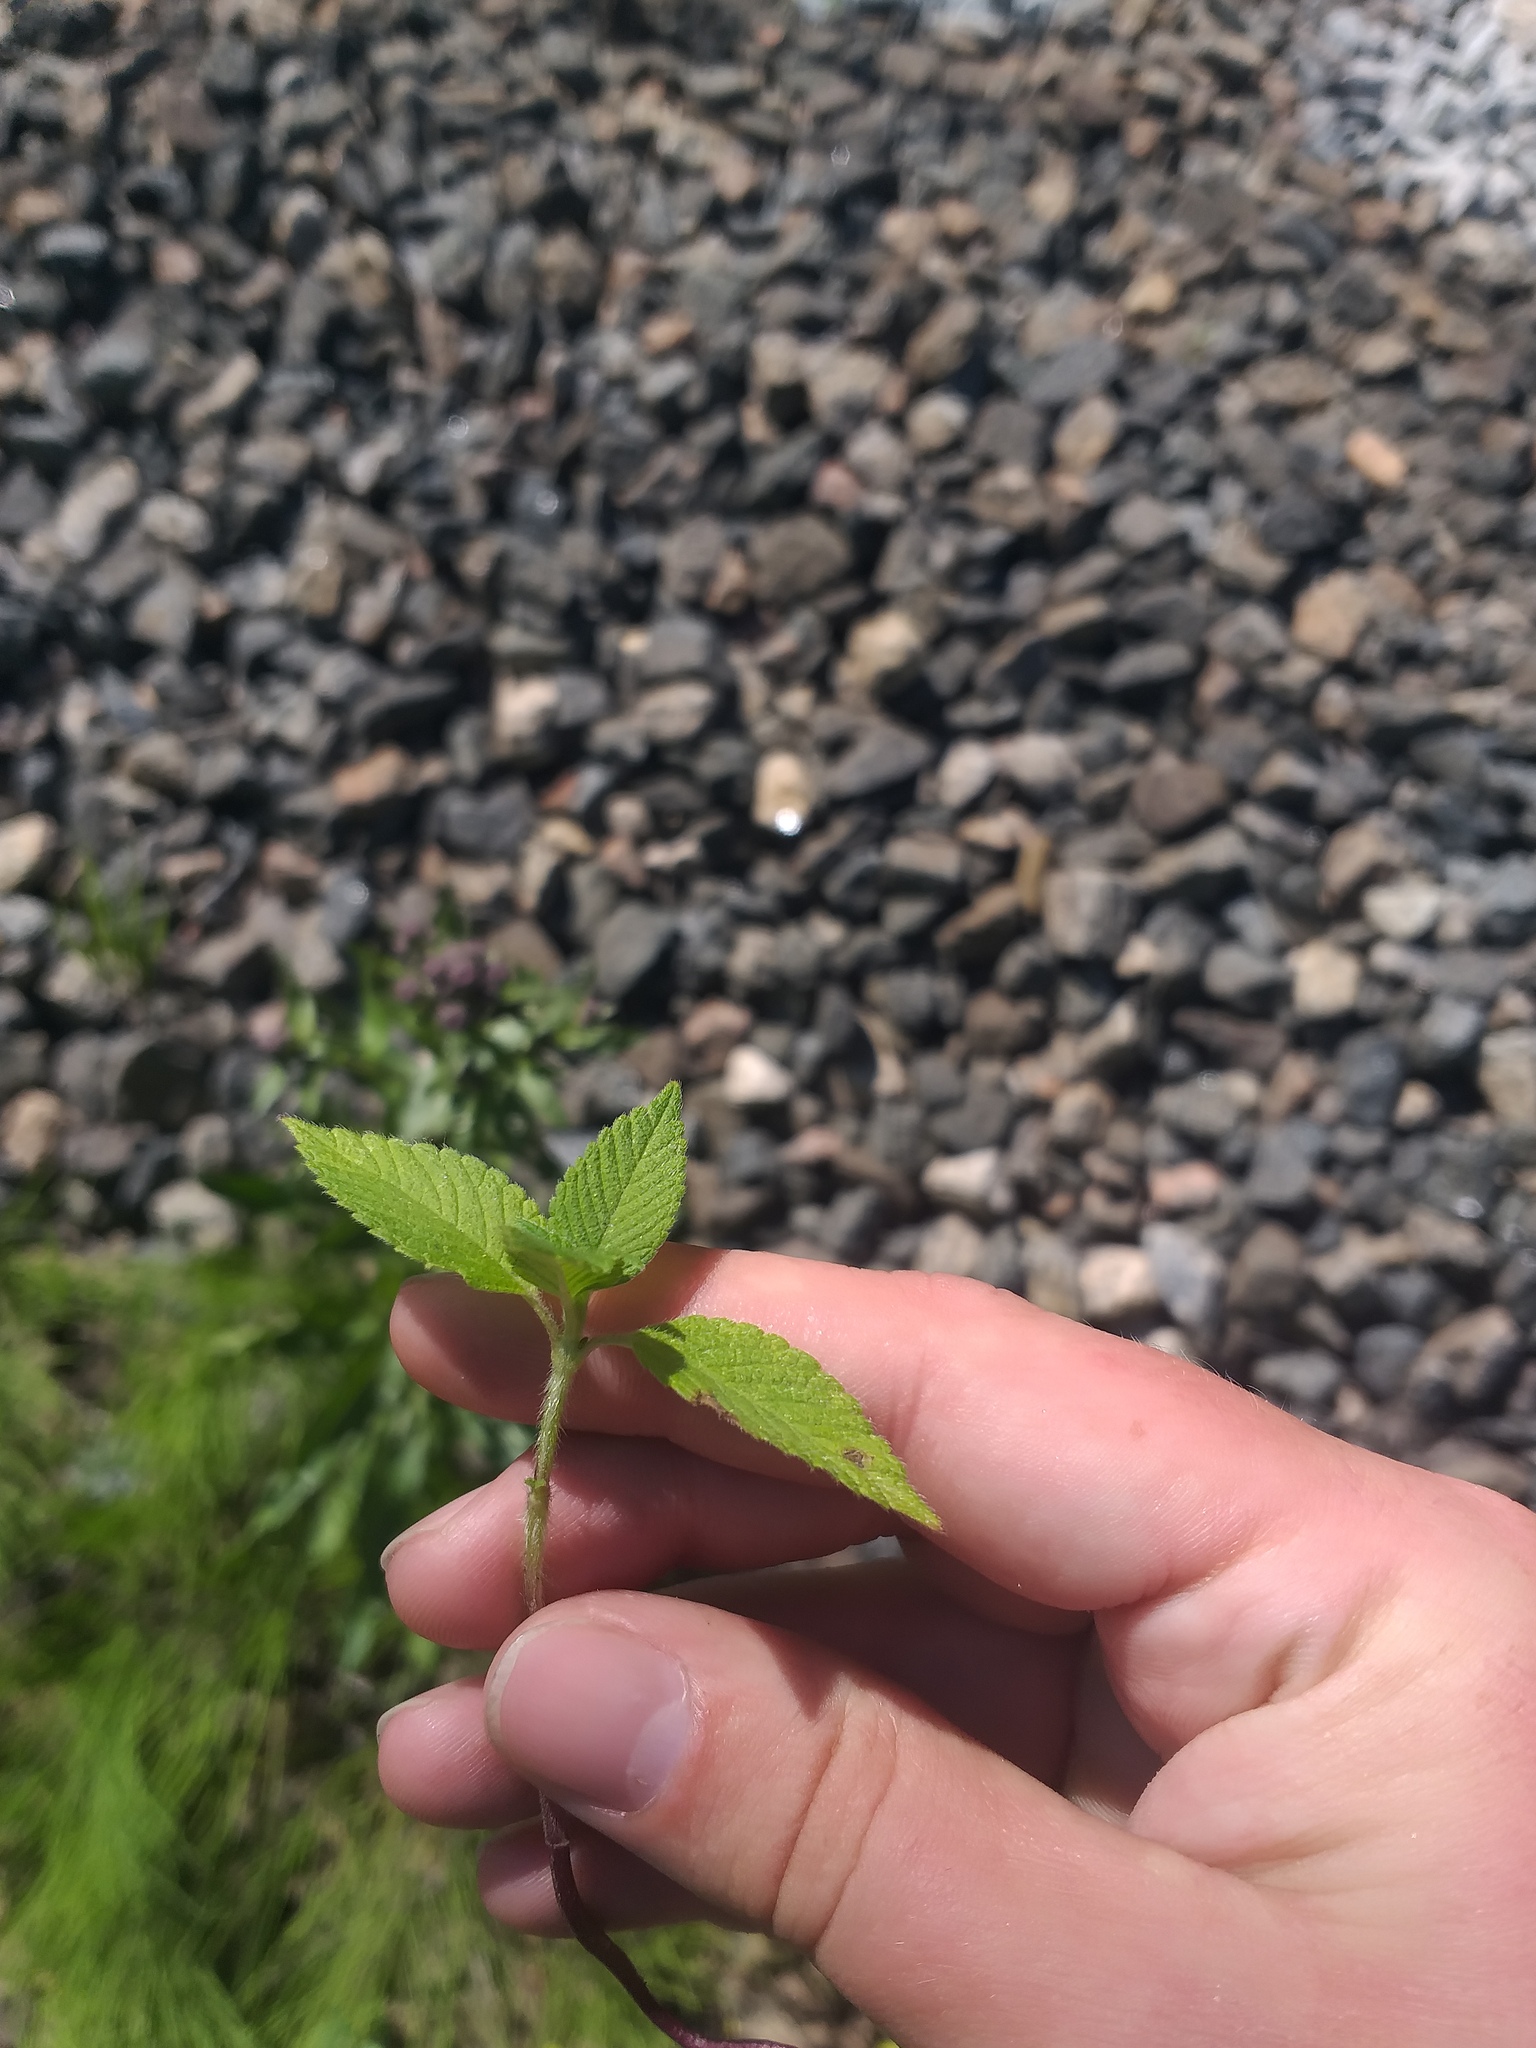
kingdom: Plantae
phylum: Tracheophyta
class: Magnoliopsida
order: Lamiales
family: Lamiaceae
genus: Galeopsis
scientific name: Galeopsis
